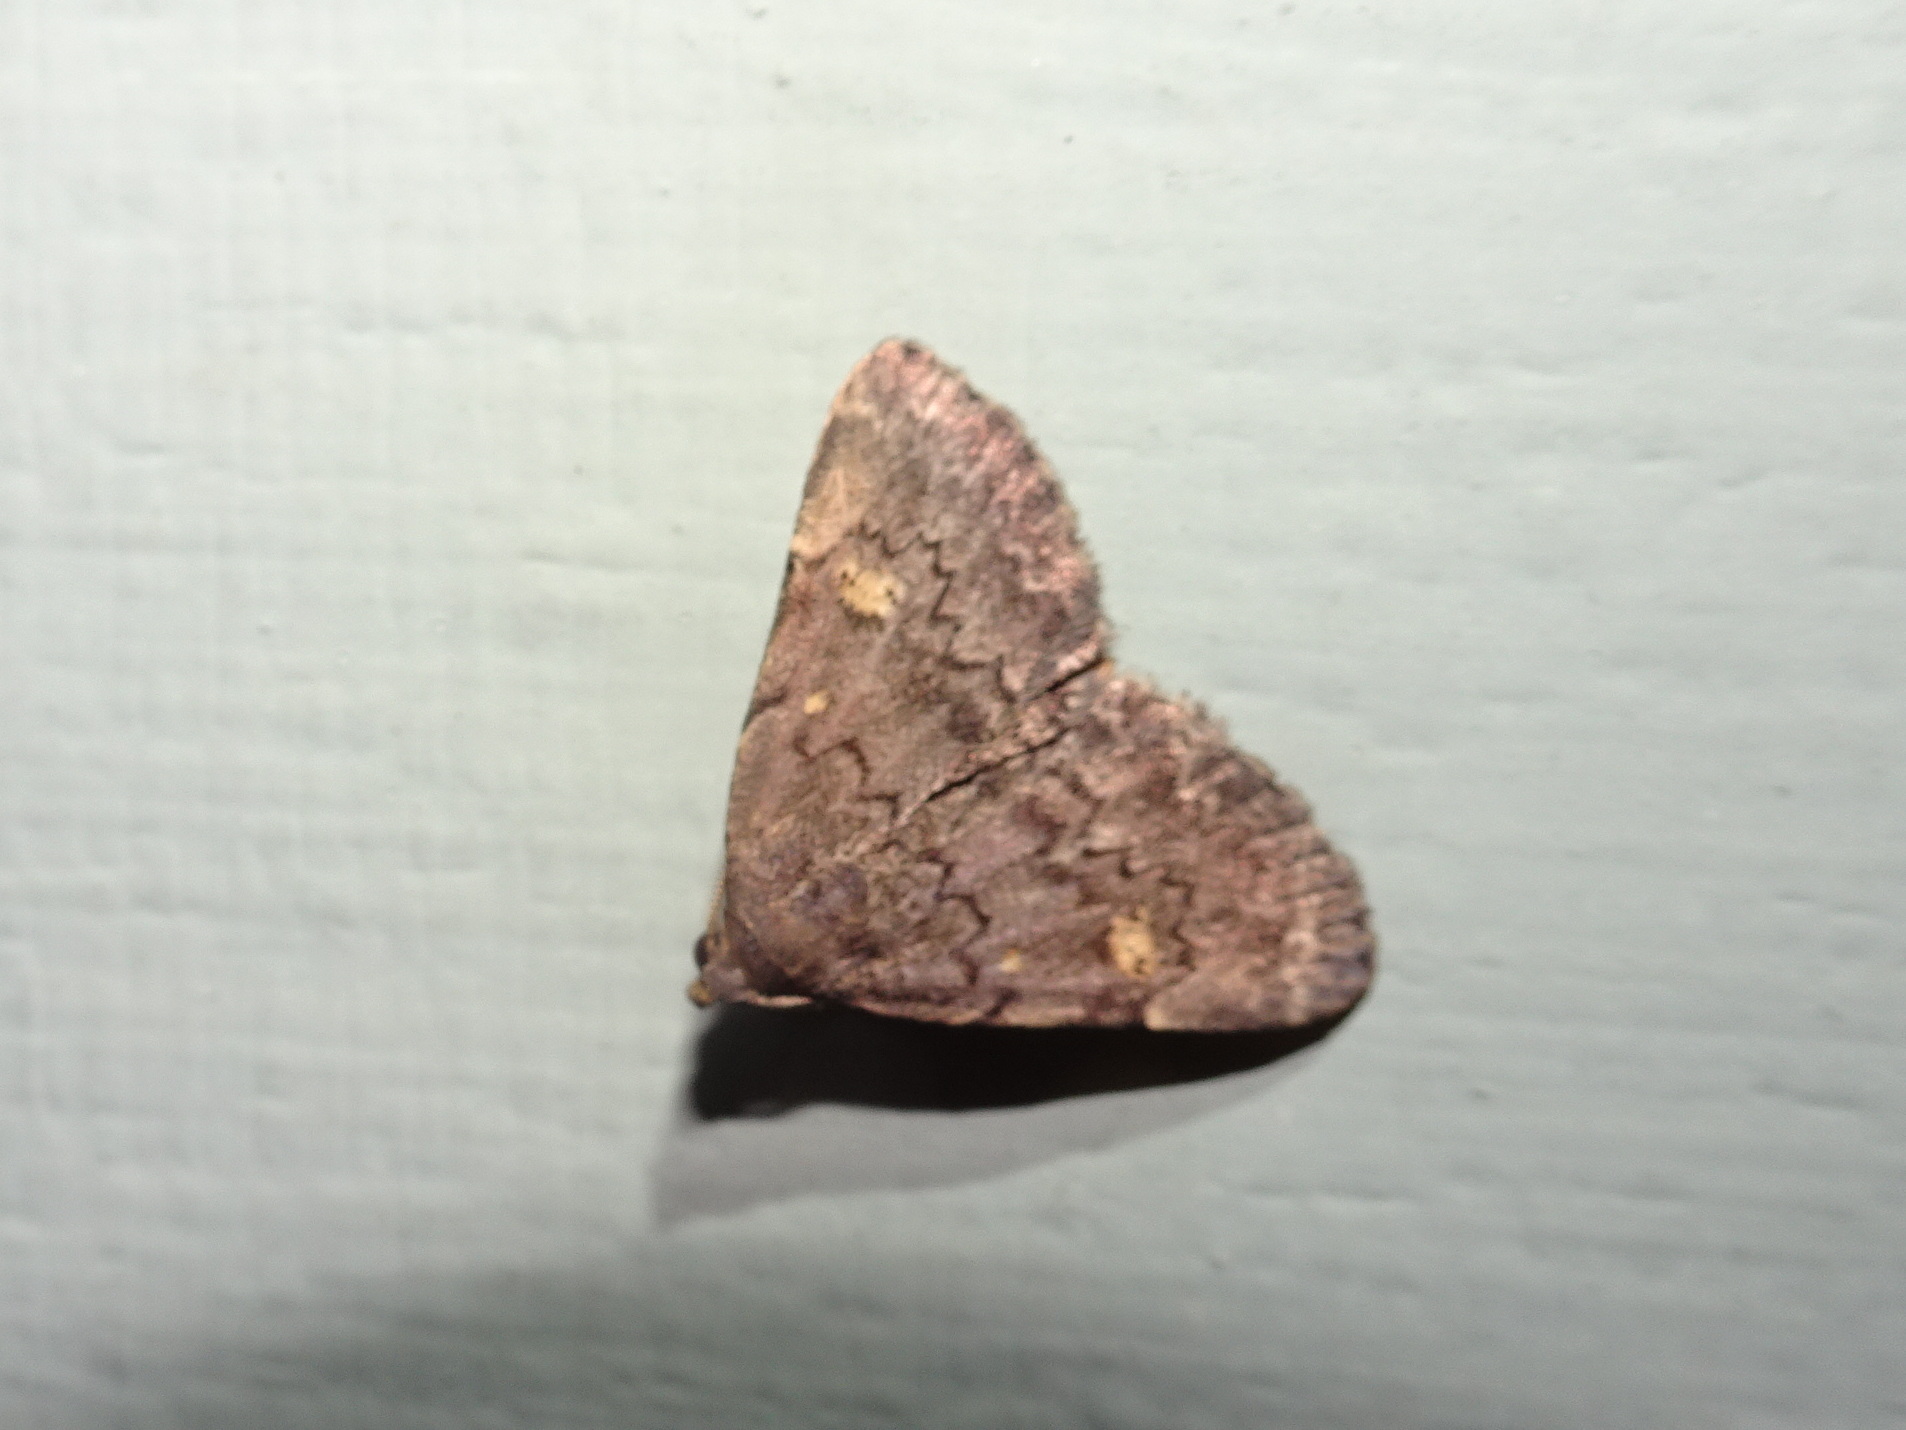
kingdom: Animalia
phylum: Arthropoda
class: Insecta
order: Lepidoptera
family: Erebidae
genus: Idia
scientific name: Idia aemula
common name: Common idia moth
